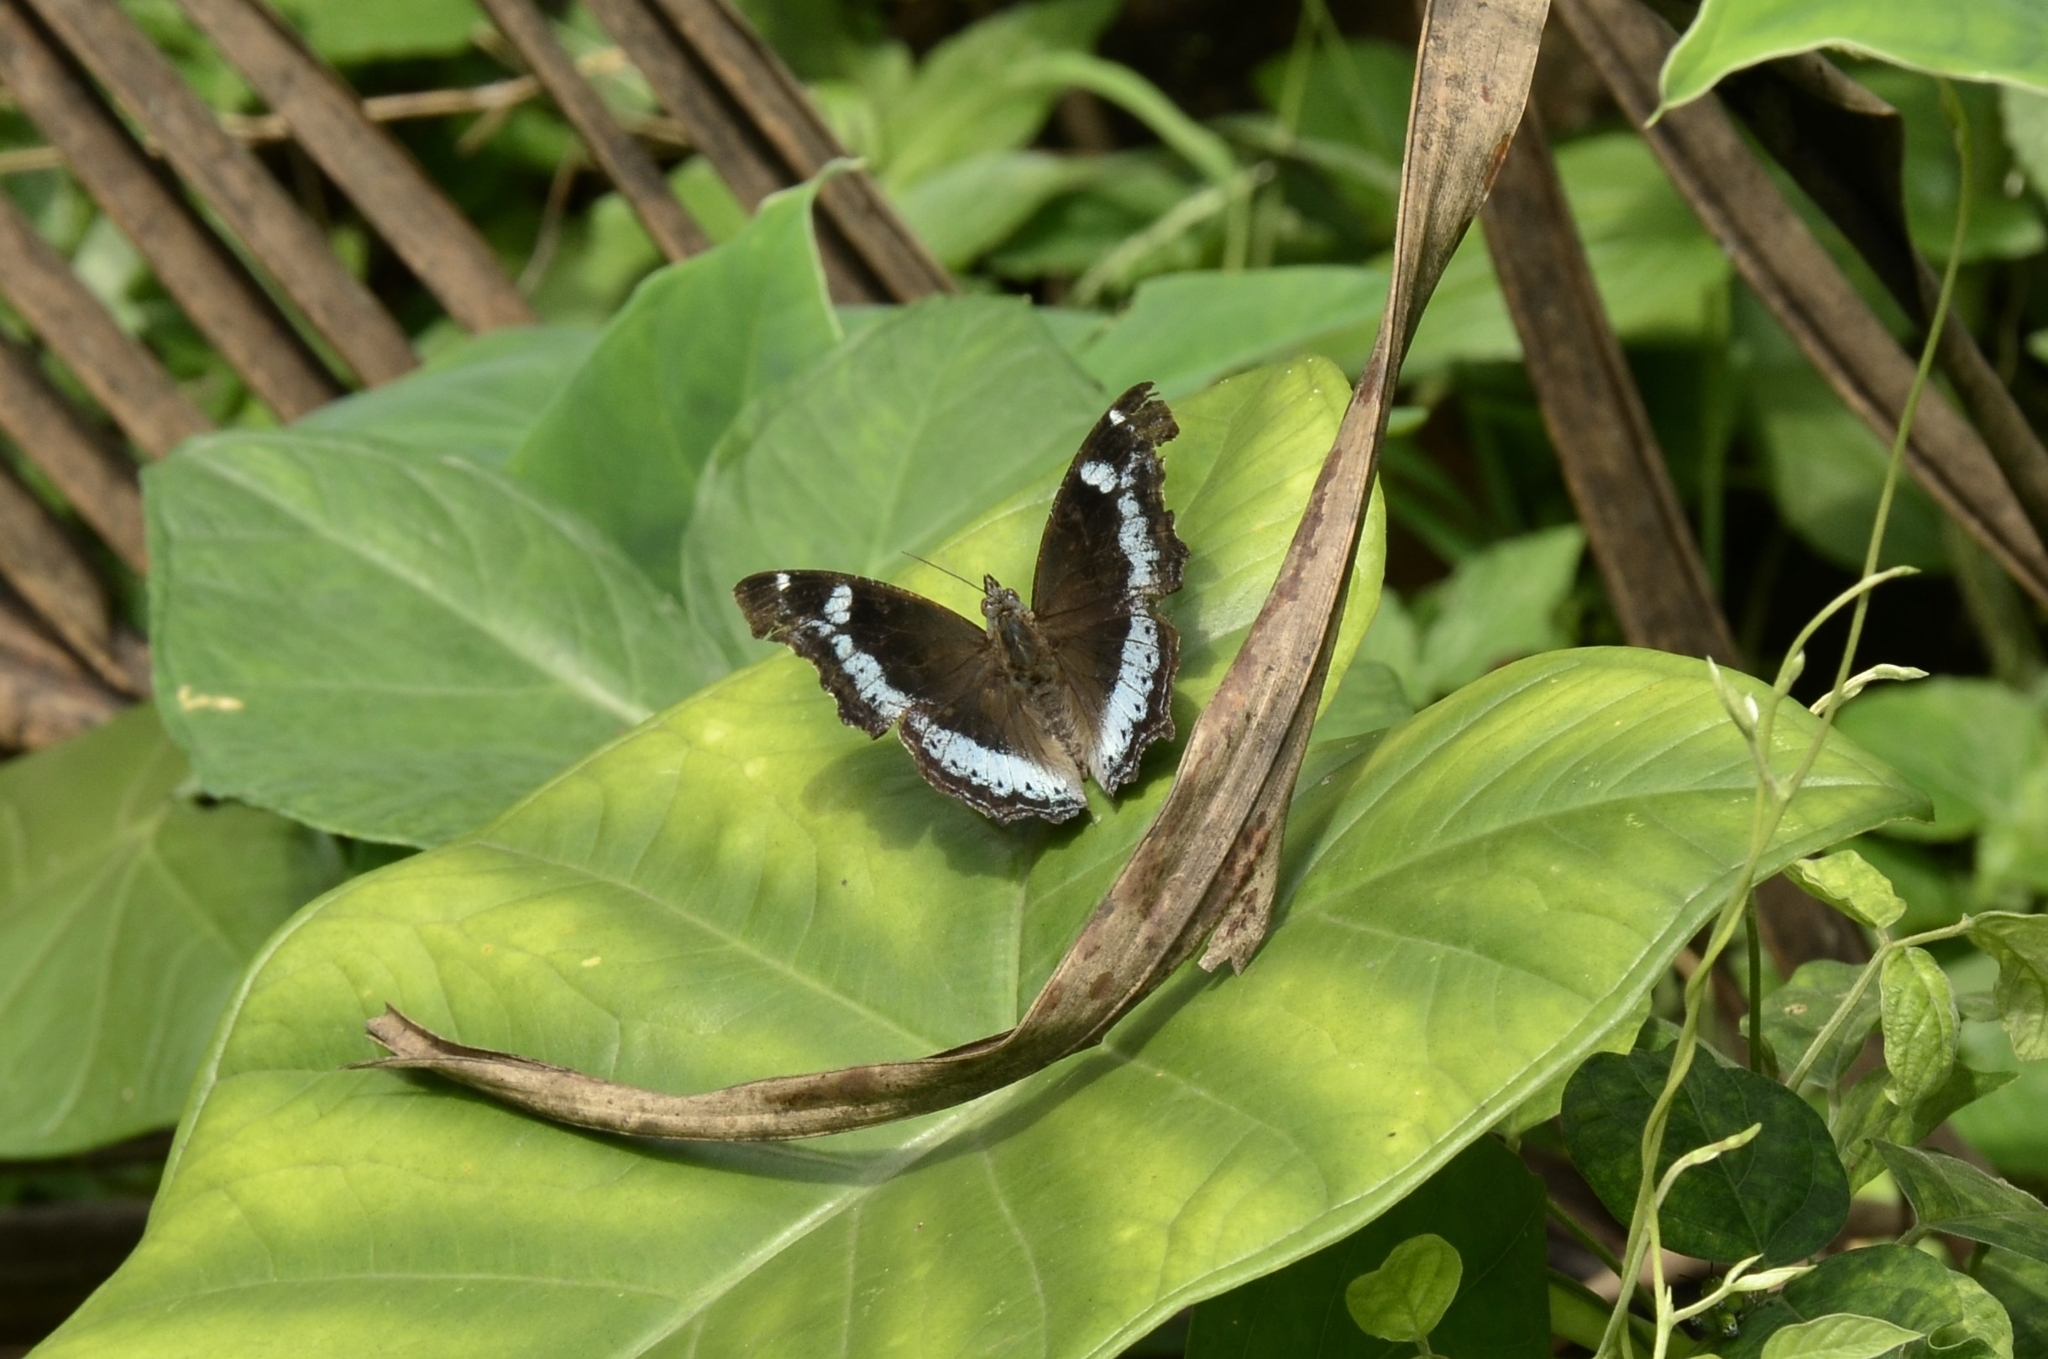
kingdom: Animalia
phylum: Arthropoda
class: Insecta
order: Lepidoptera
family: Nymphalidae
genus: Vanessa
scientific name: Vanessa Kaniska canace
